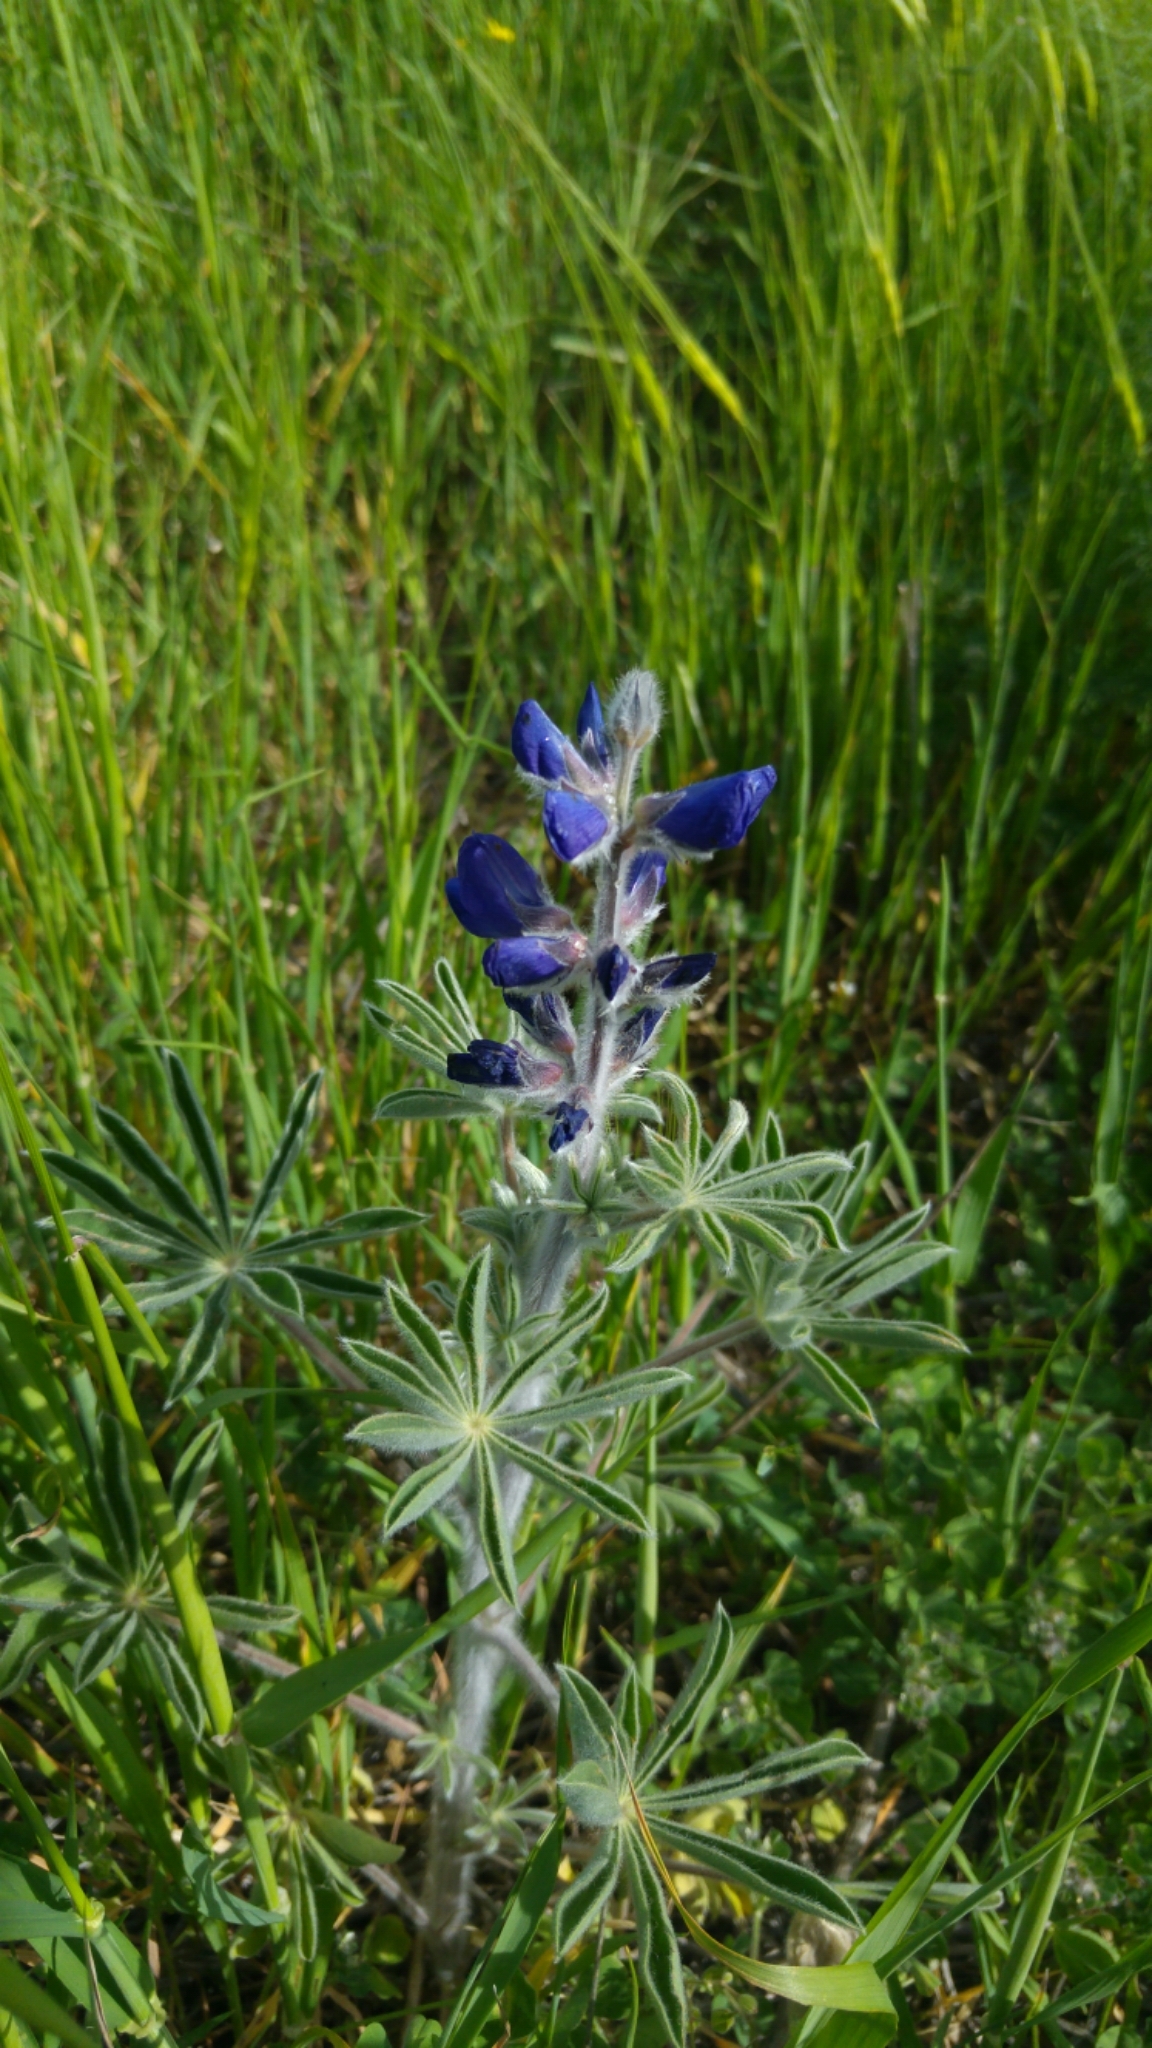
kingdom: Plantae
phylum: Tracheophyta
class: Magnoliopsida
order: Fabales
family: Fabaceae
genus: Lupinus
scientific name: Lupinus pilosus
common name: Blue lupine
